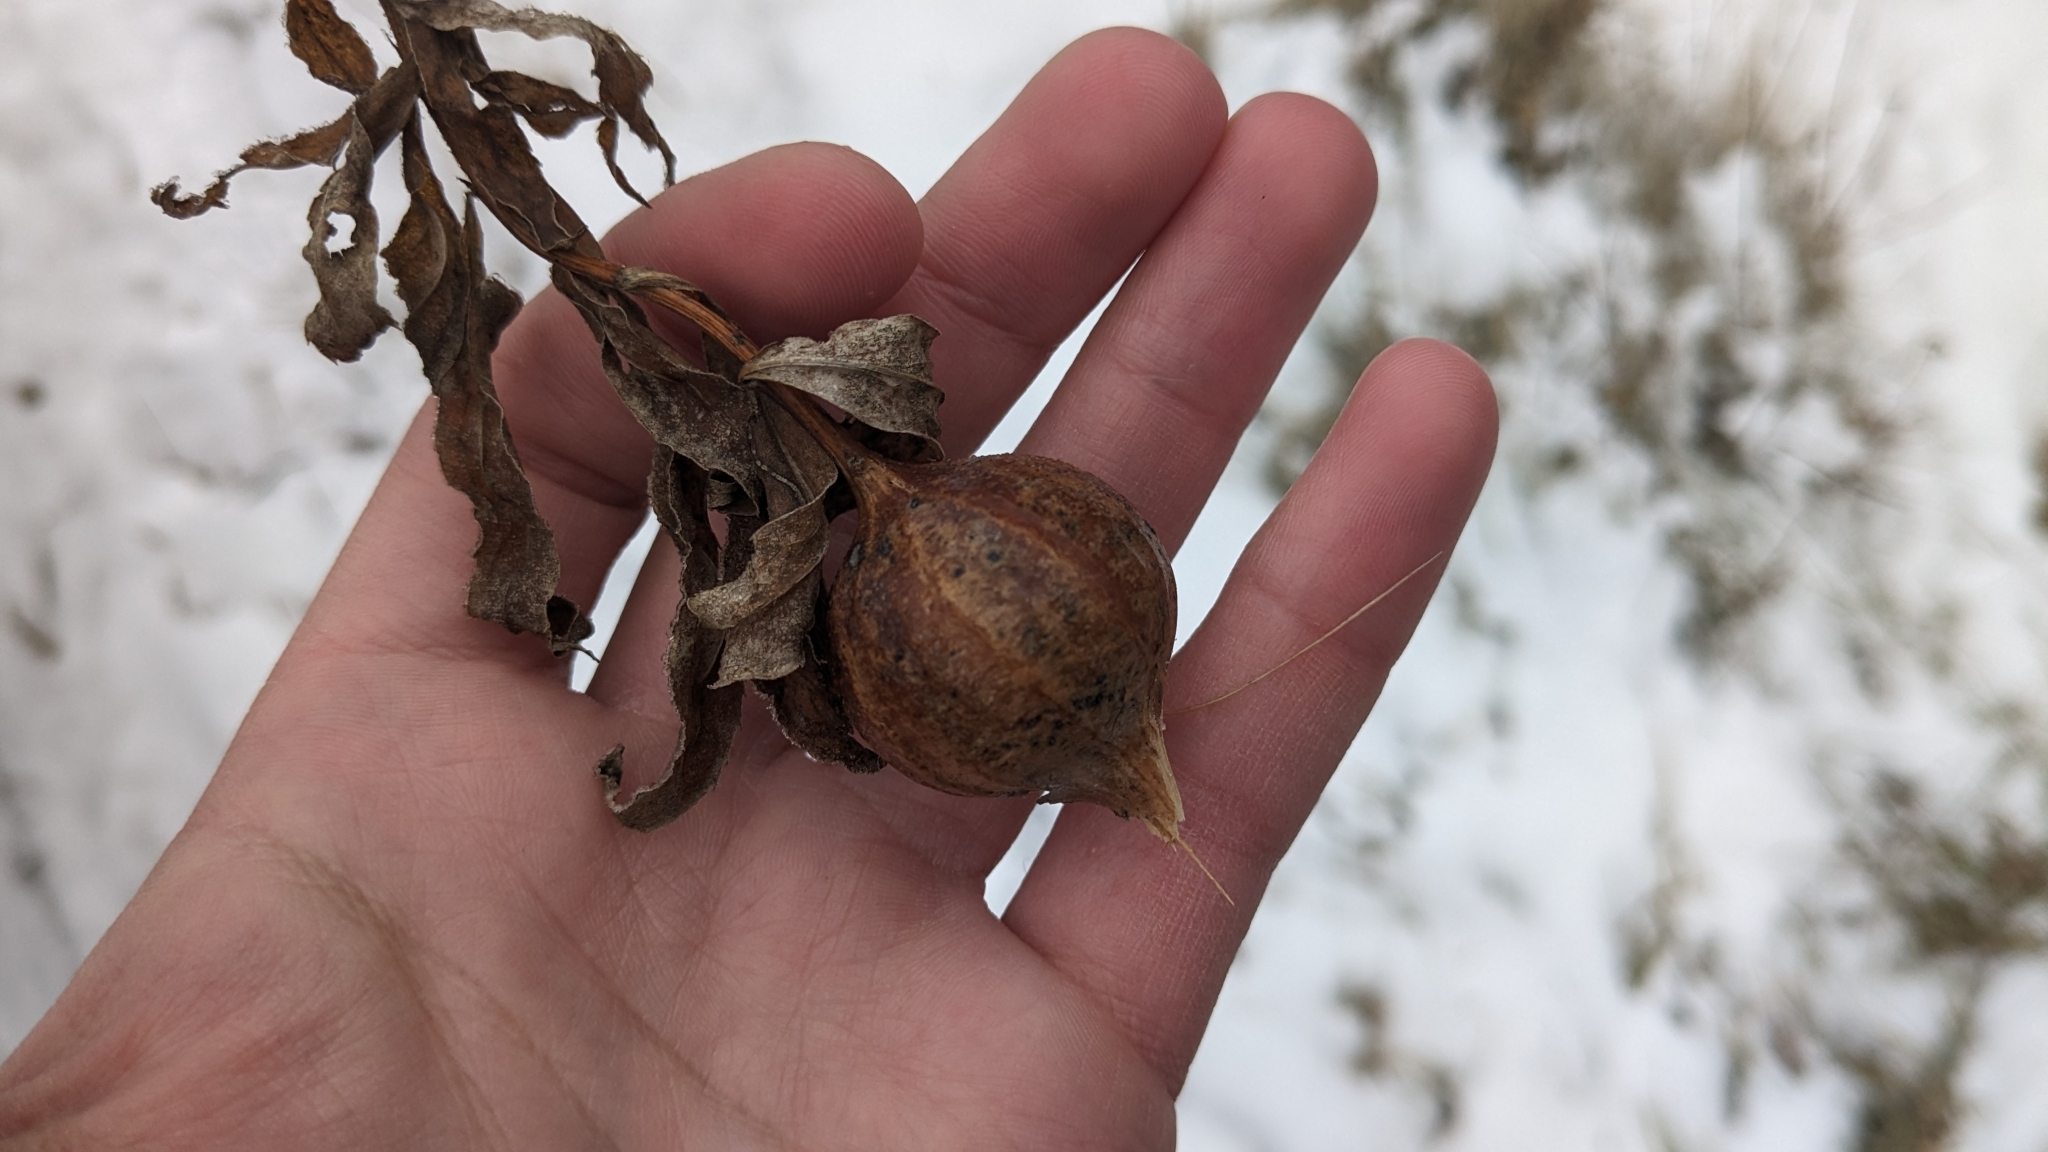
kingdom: Animalia
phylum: Arthropoda
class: Insecta
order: Diptera
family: Tephritidae
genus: Eurosta
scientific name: Eurosta solidaginis
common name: Goldenrod gall fly
